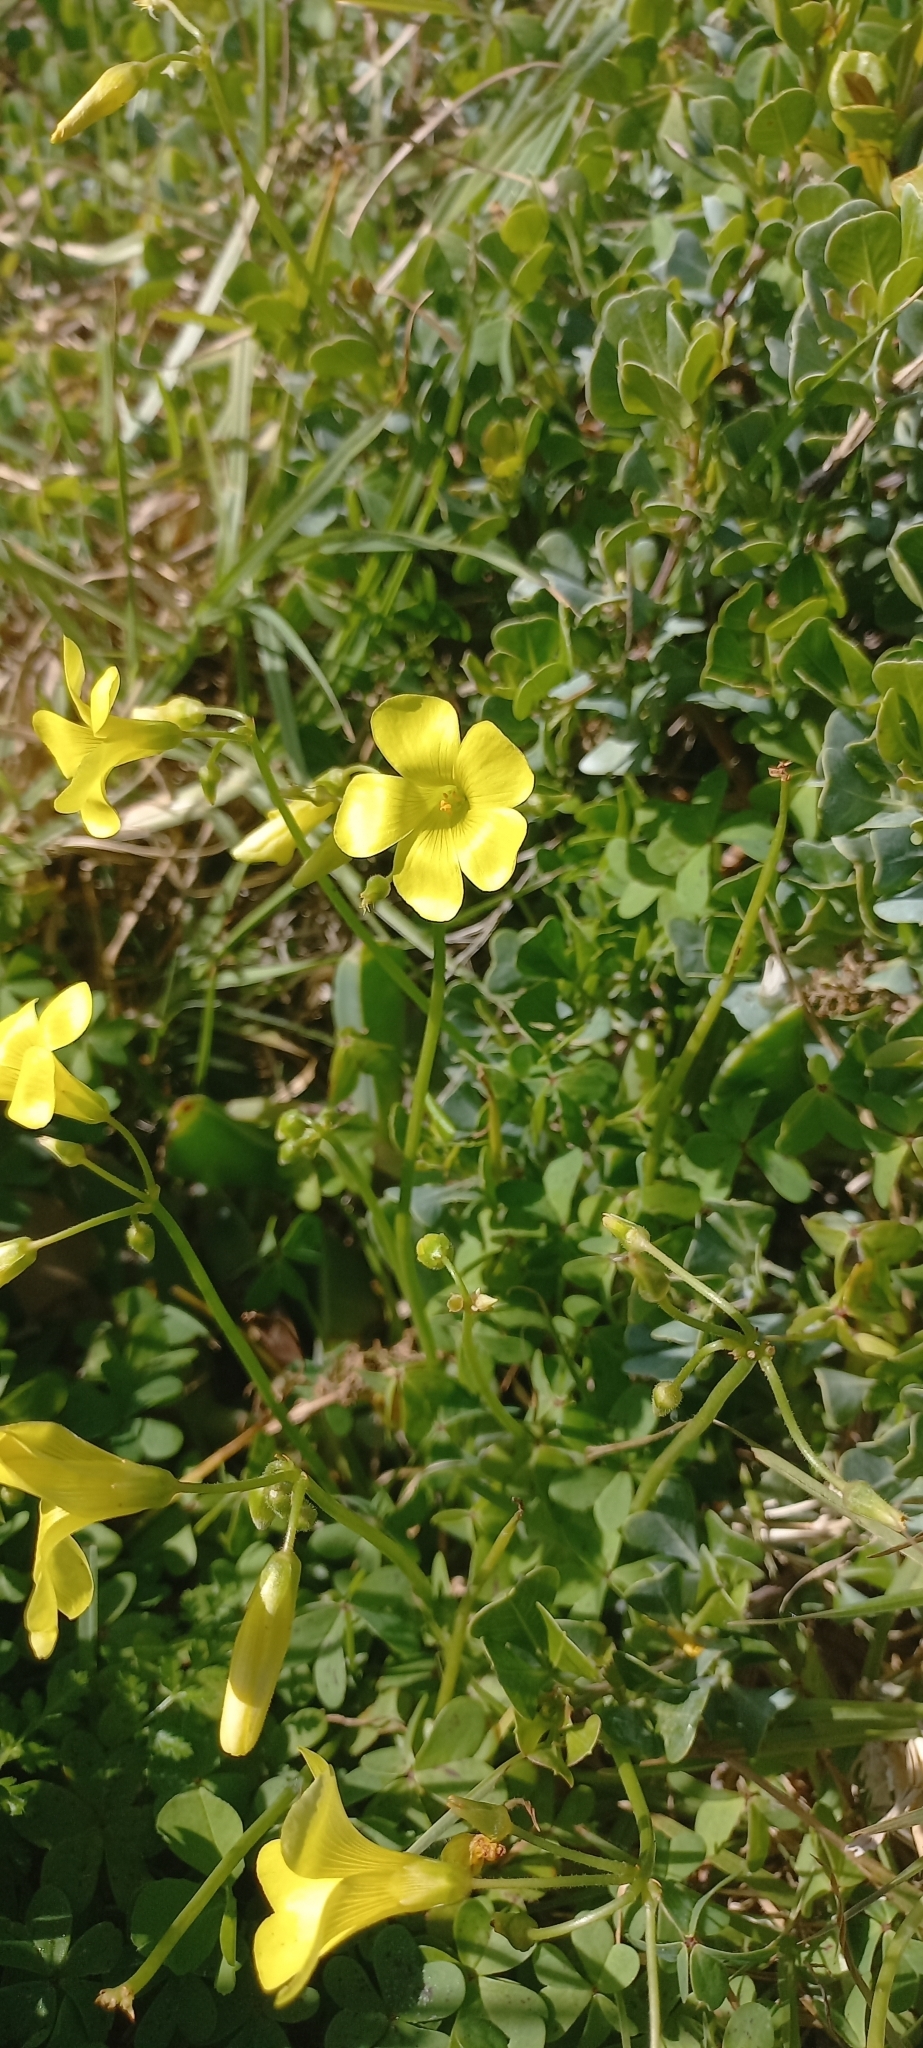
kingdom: Plantae
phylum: Tracheophyta
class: Magnoliopsida
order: Oxalidales
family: Oxalidaceae
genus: Oxalis
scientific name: Oxalis pes-caprae
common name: Bermuda-buttercup
